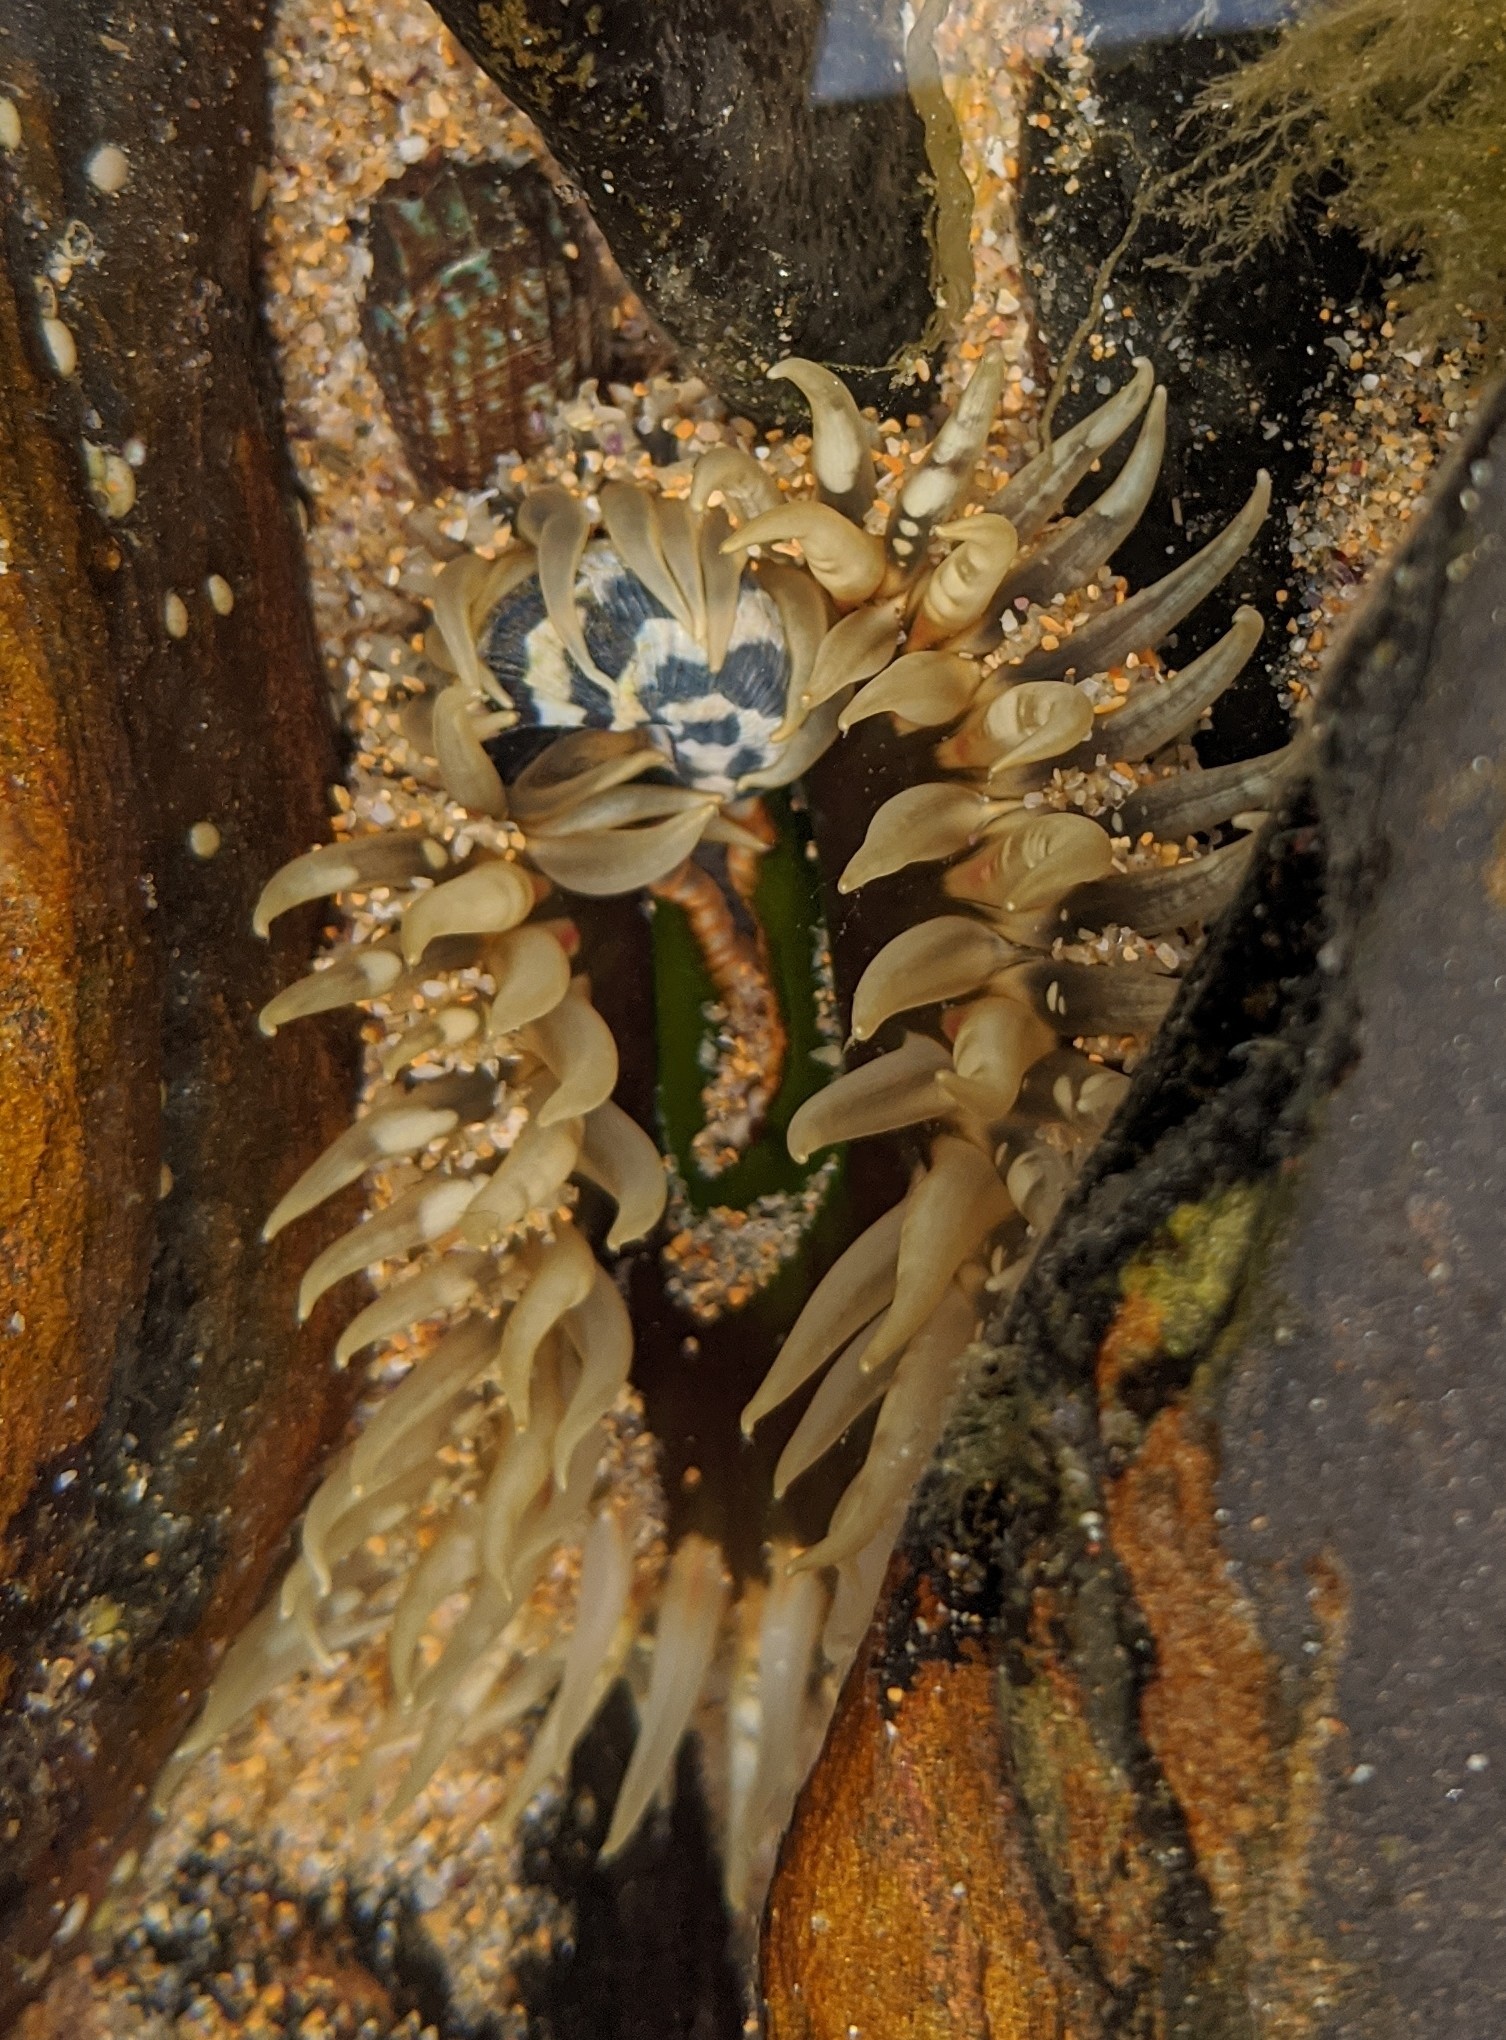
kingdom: Animalia
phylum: Cnidaria
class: Anthozoa
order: Actiniaria
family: Actiniidae
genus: Oulactis
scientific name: Oulactis muscosa
